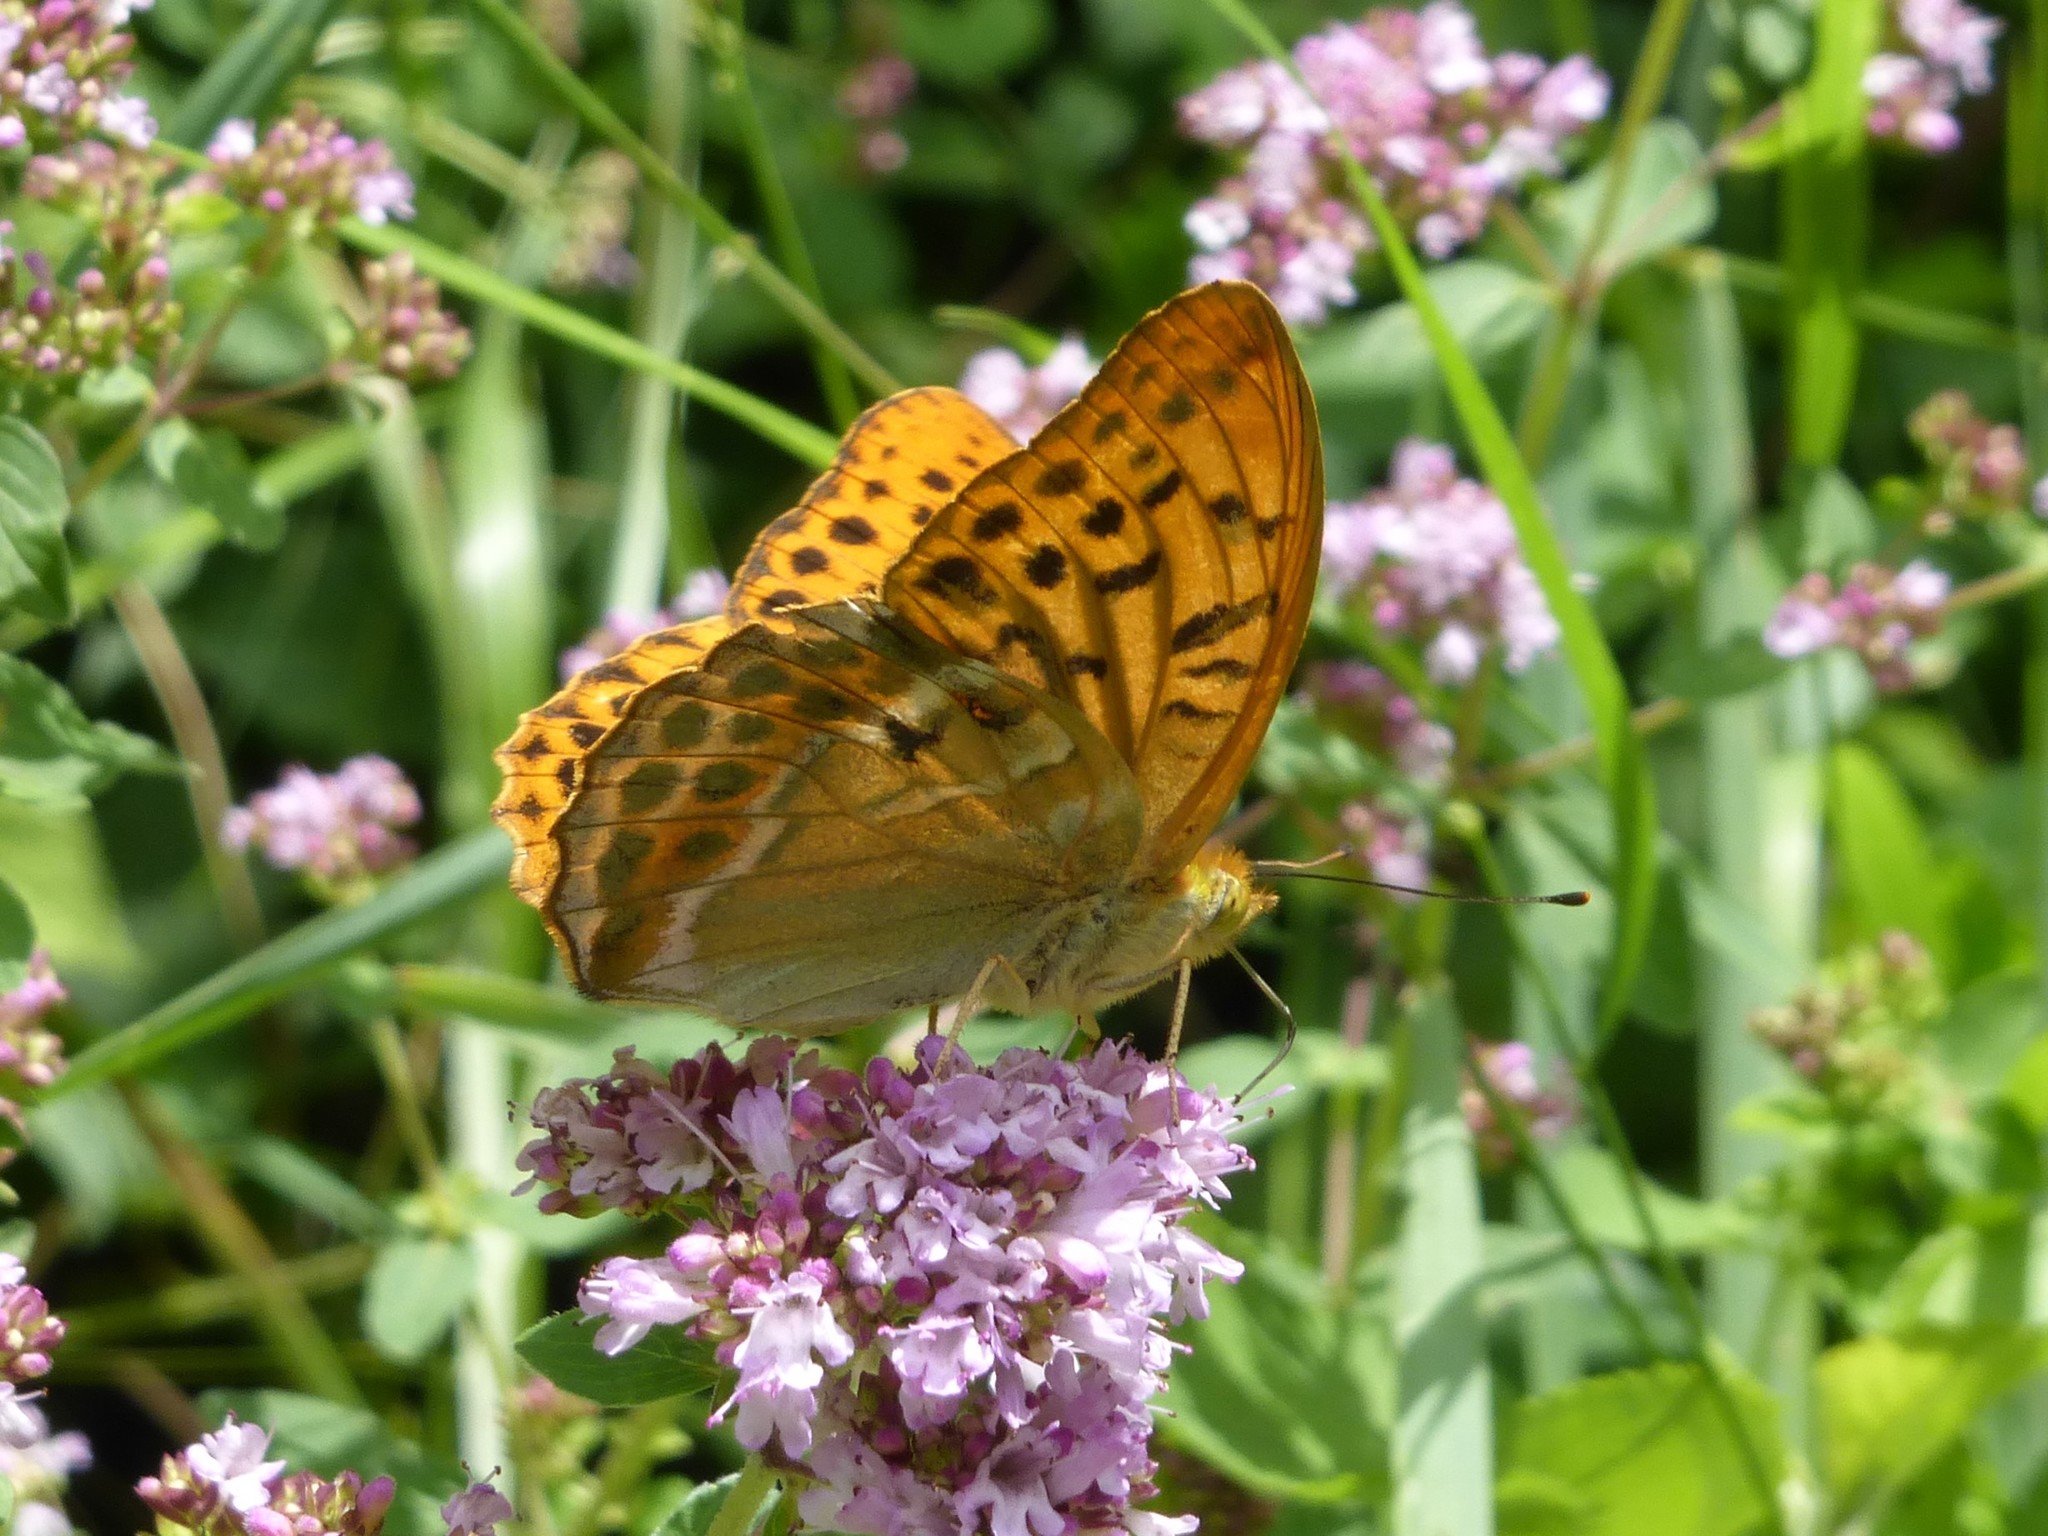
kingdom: Animalia
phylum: Arthropoda
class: Insecta
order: Lepidoptera
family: Nymphalidae
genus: Argynnis
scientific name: Argynnis paphia
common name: Silver-washed fritillary
